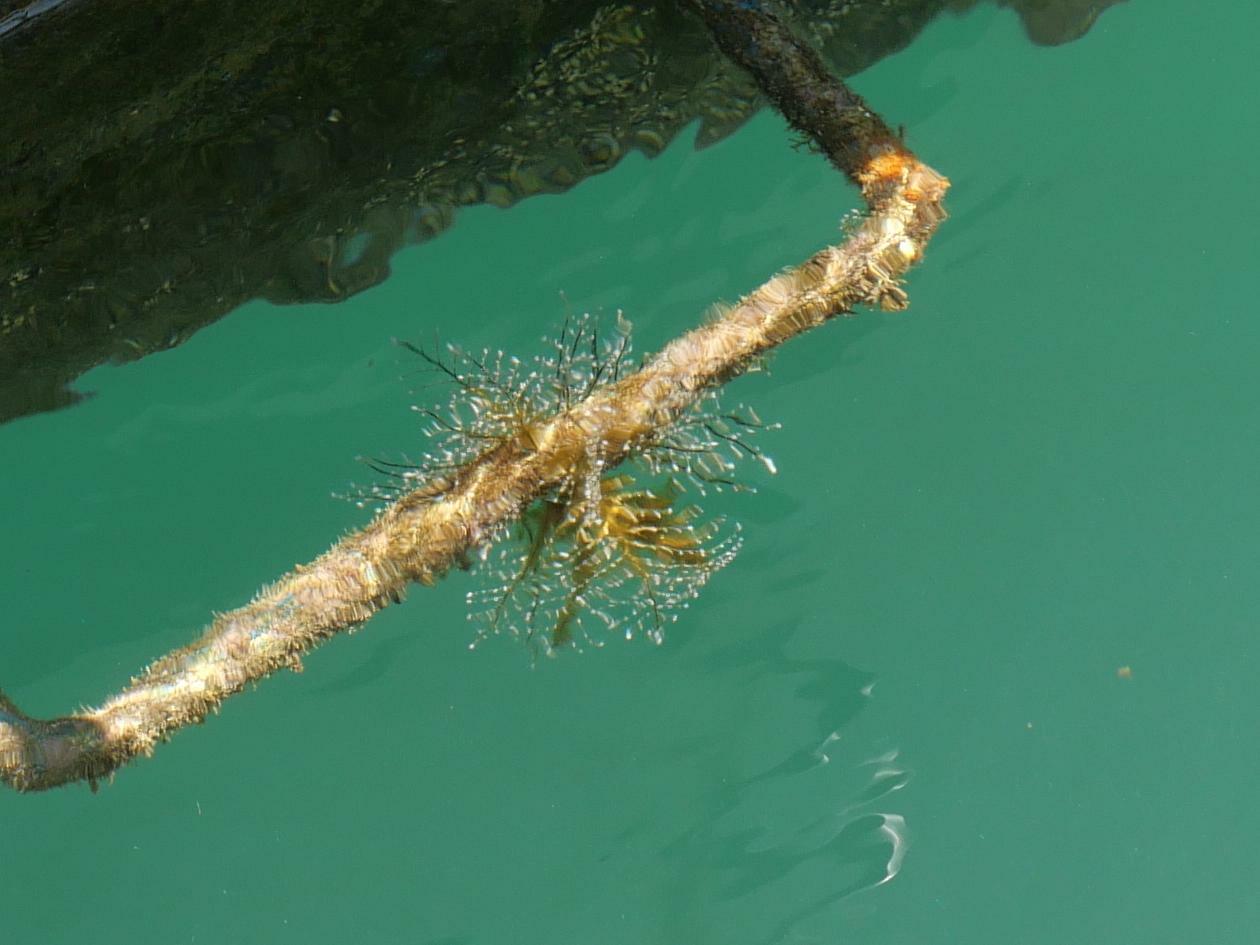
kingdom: Animalia
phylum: Cnidaria
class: Hydrozoa
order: Anthoathecata
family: Pennariidae
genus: Pennaria
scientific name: Pennaria disticha
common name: Feather hydroid
